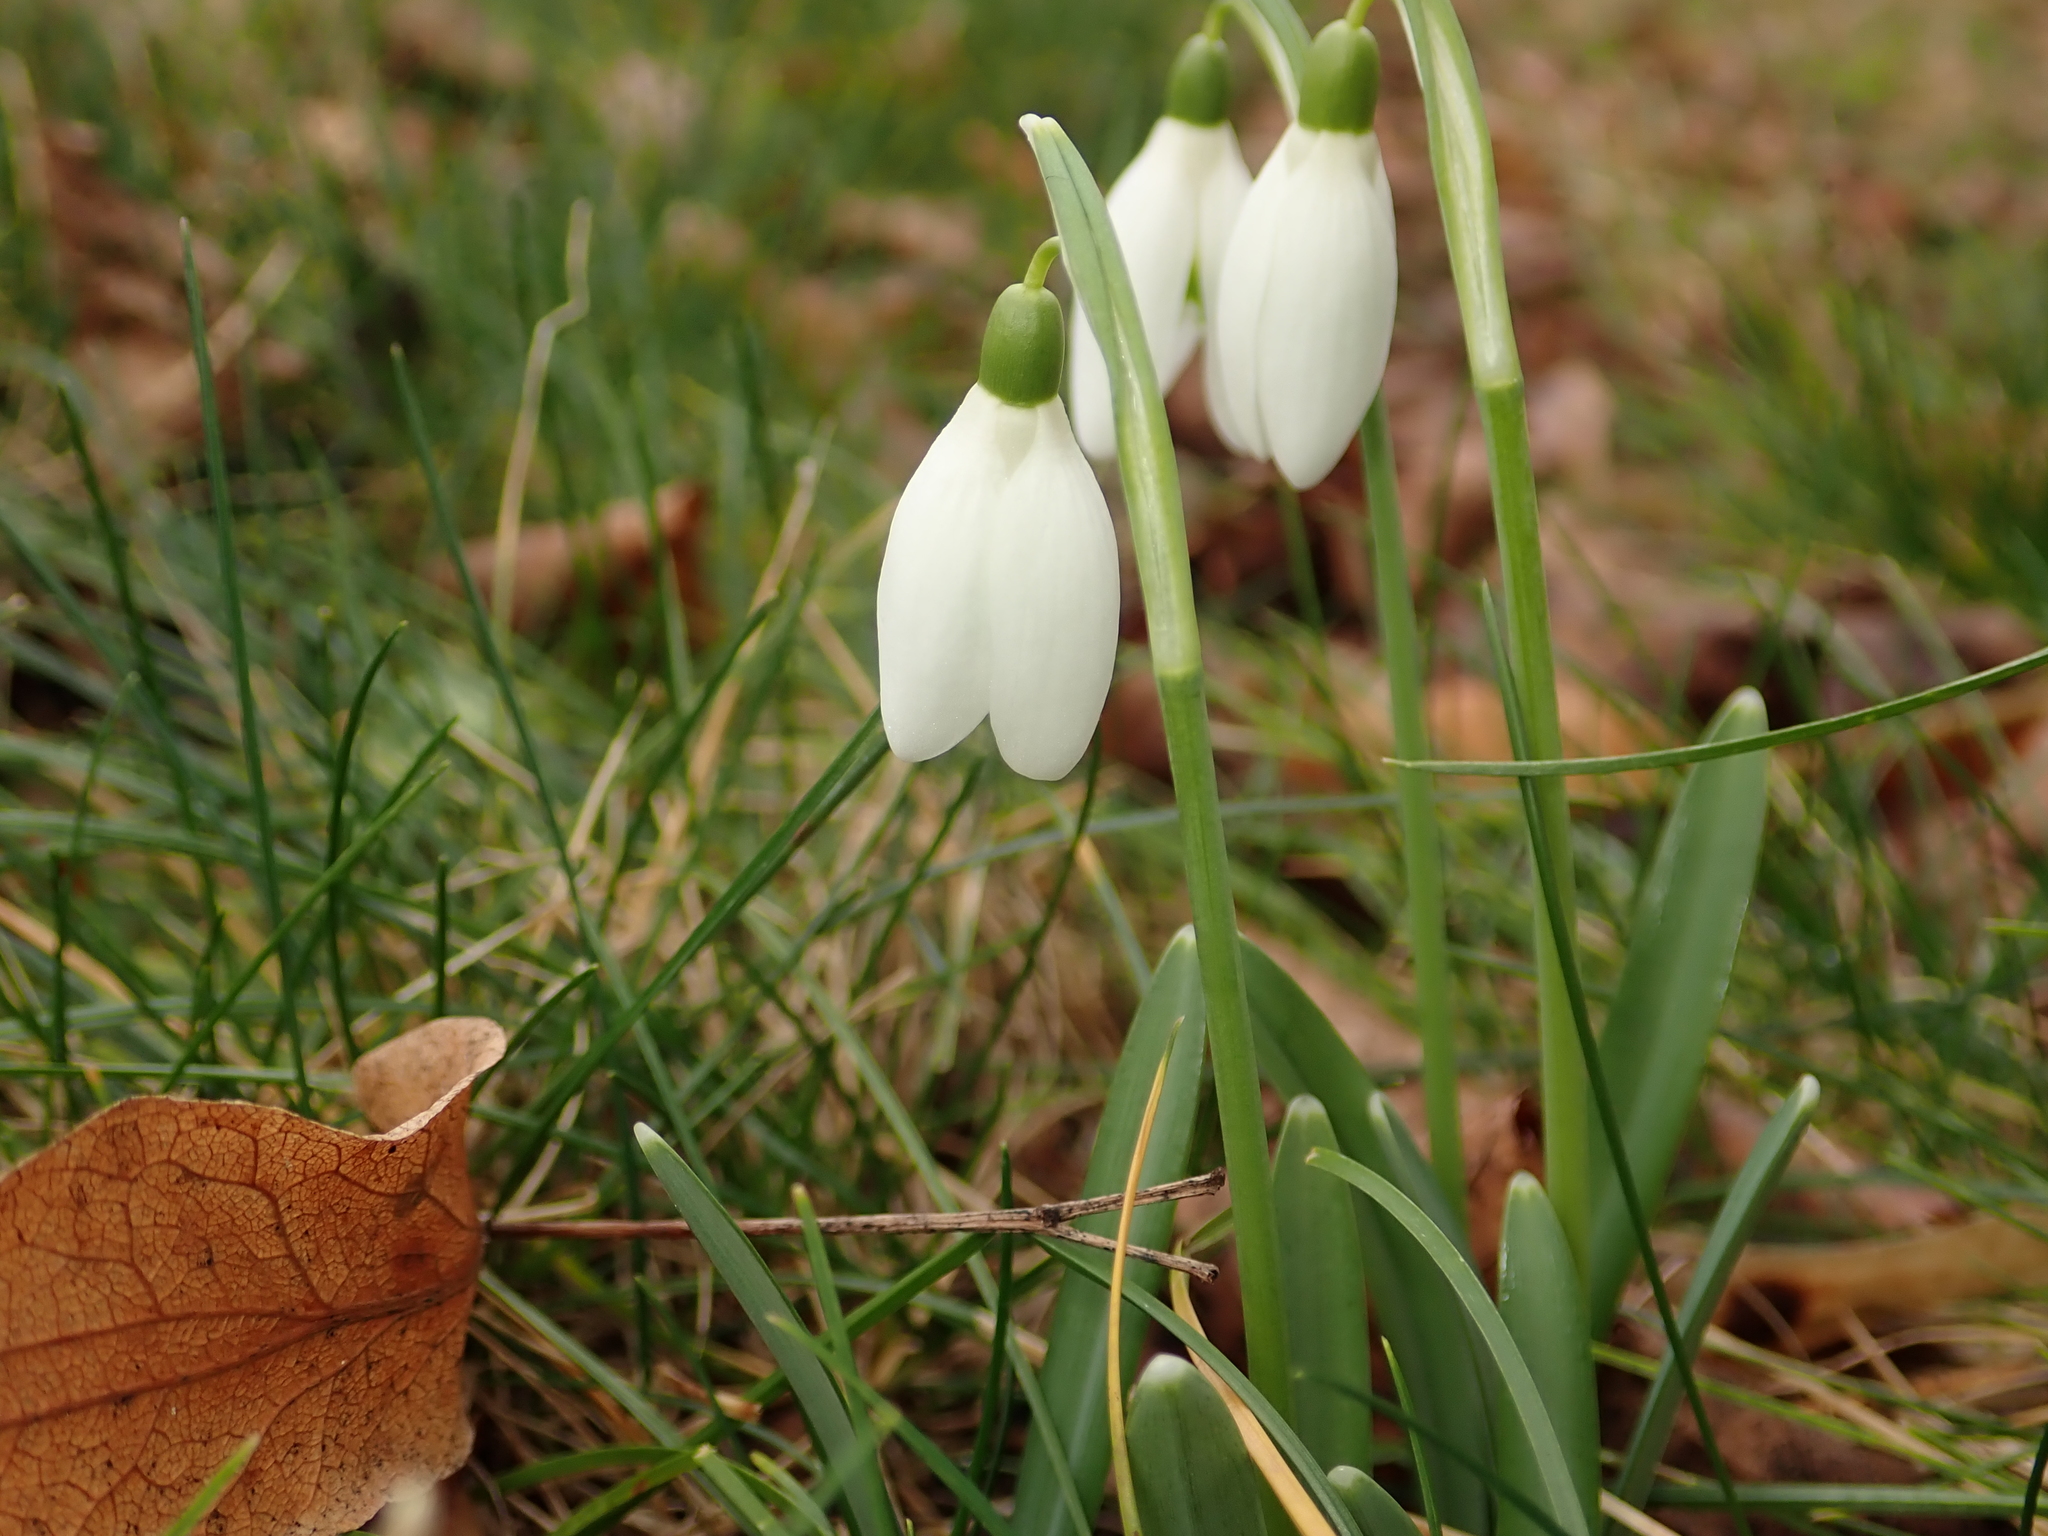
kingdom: Plantae
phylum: Tracheophyta
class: Liliopsida
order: Asparagales
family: Amaryllidaceae
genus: Galanthus
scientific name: Galanthus nivalis
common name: Snowdrop
